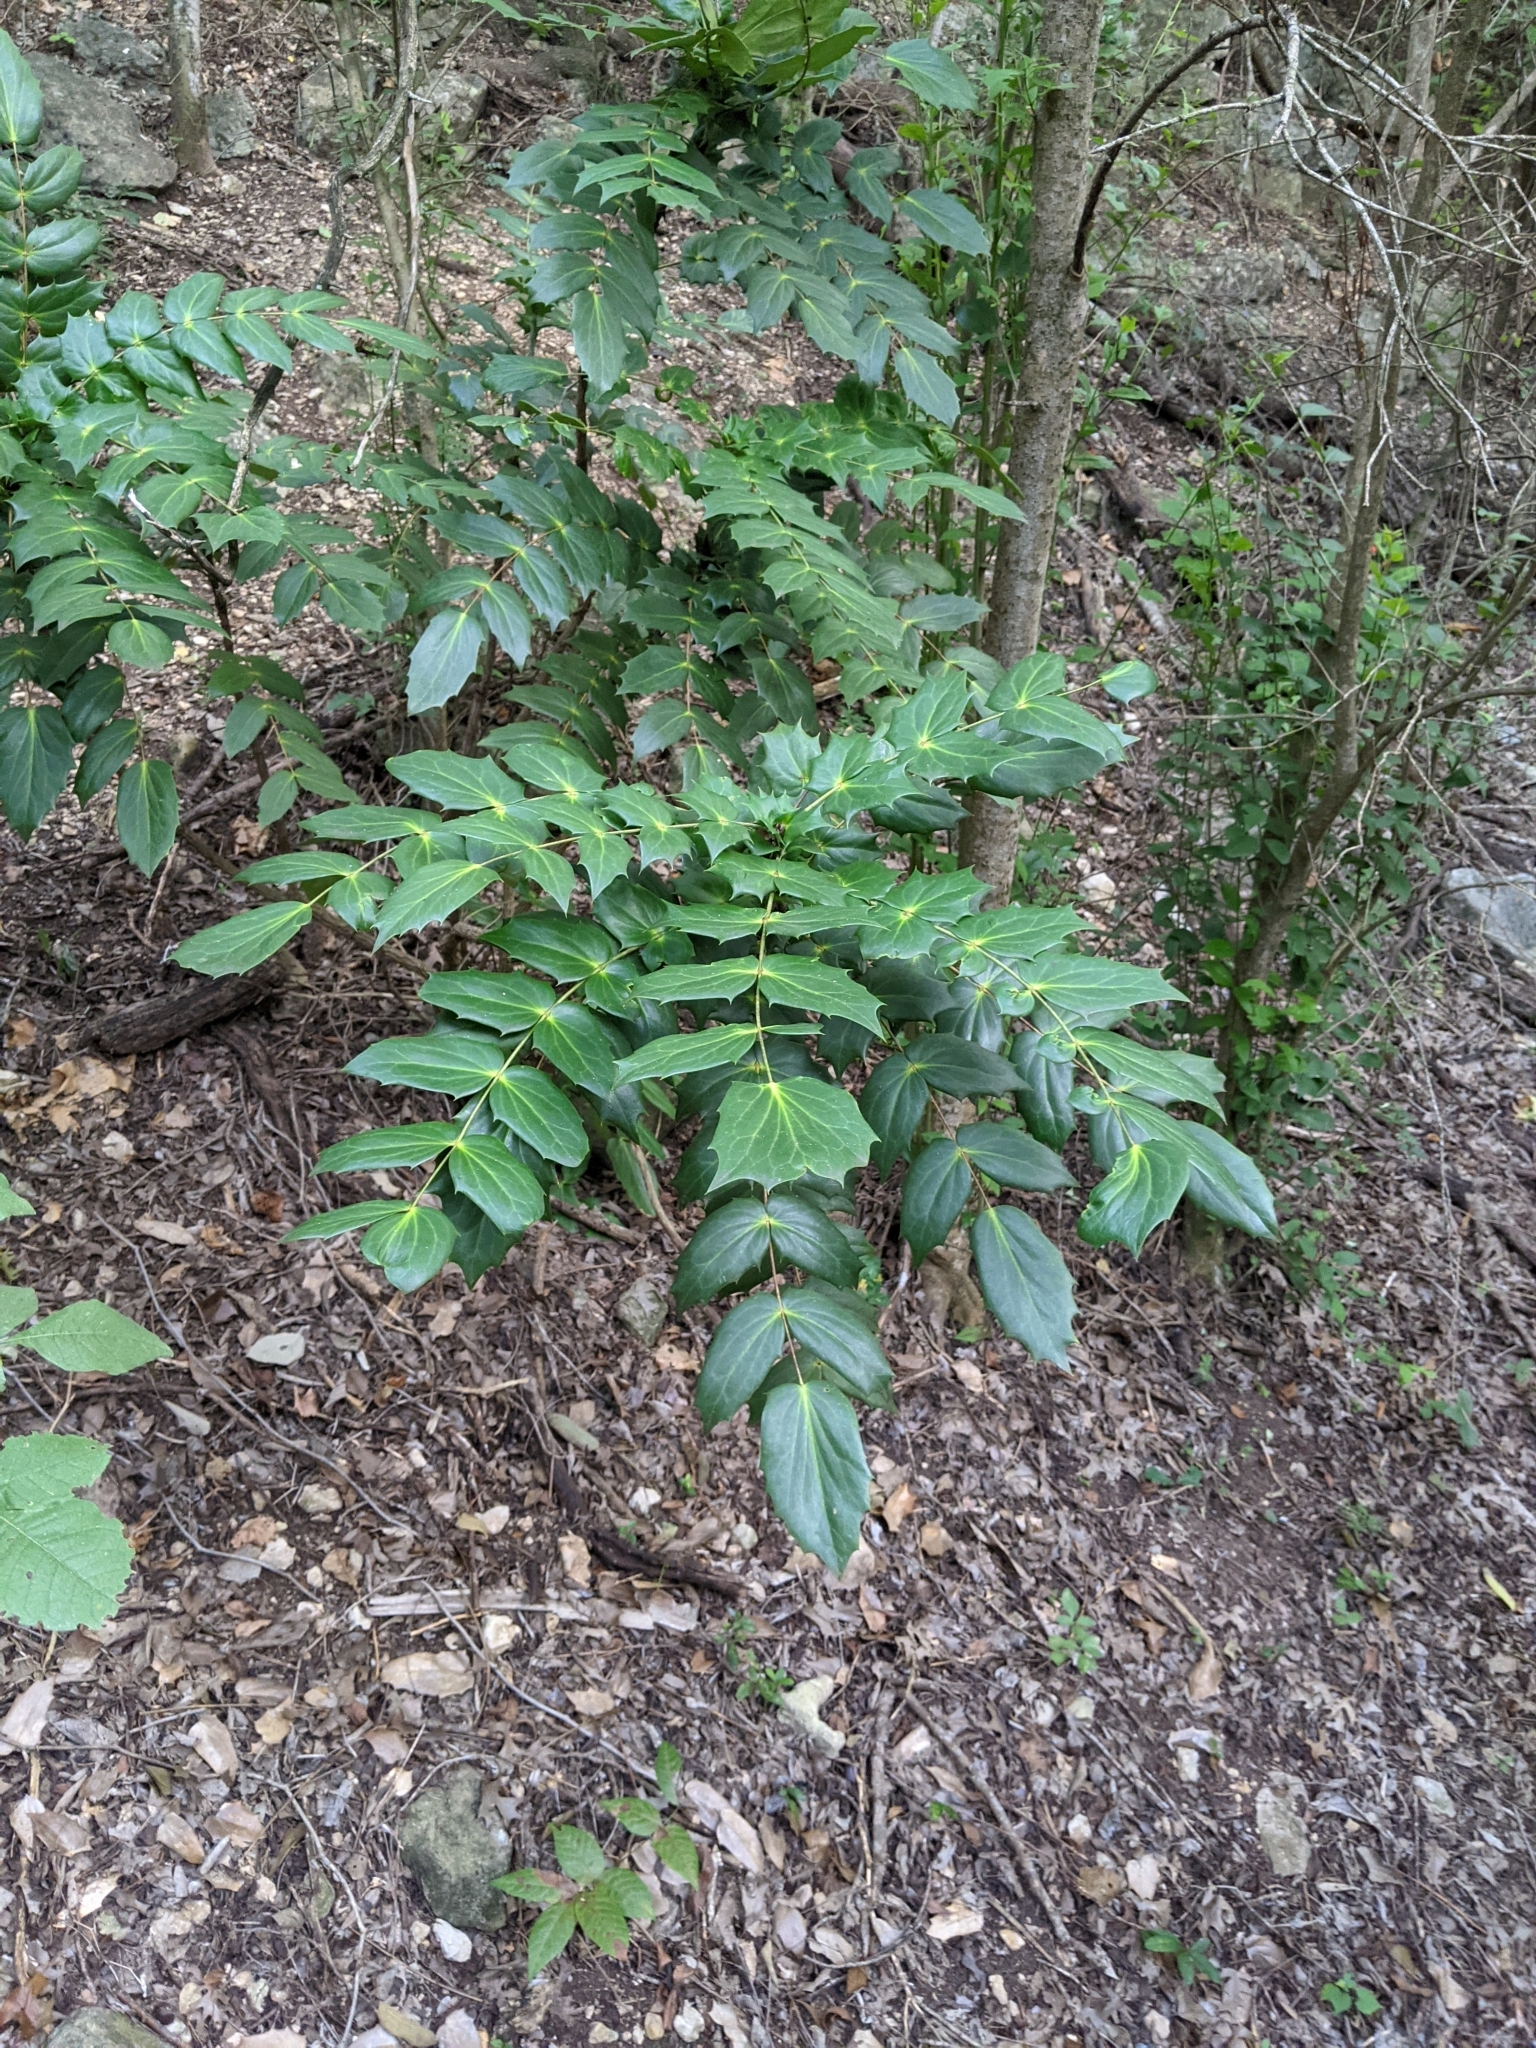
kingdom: Plantae
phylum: Tracheophyta
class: Magnoliopsida
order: Ranunculales
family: Berberidaceae
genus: Mahonia
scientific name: Mahonia bealei
